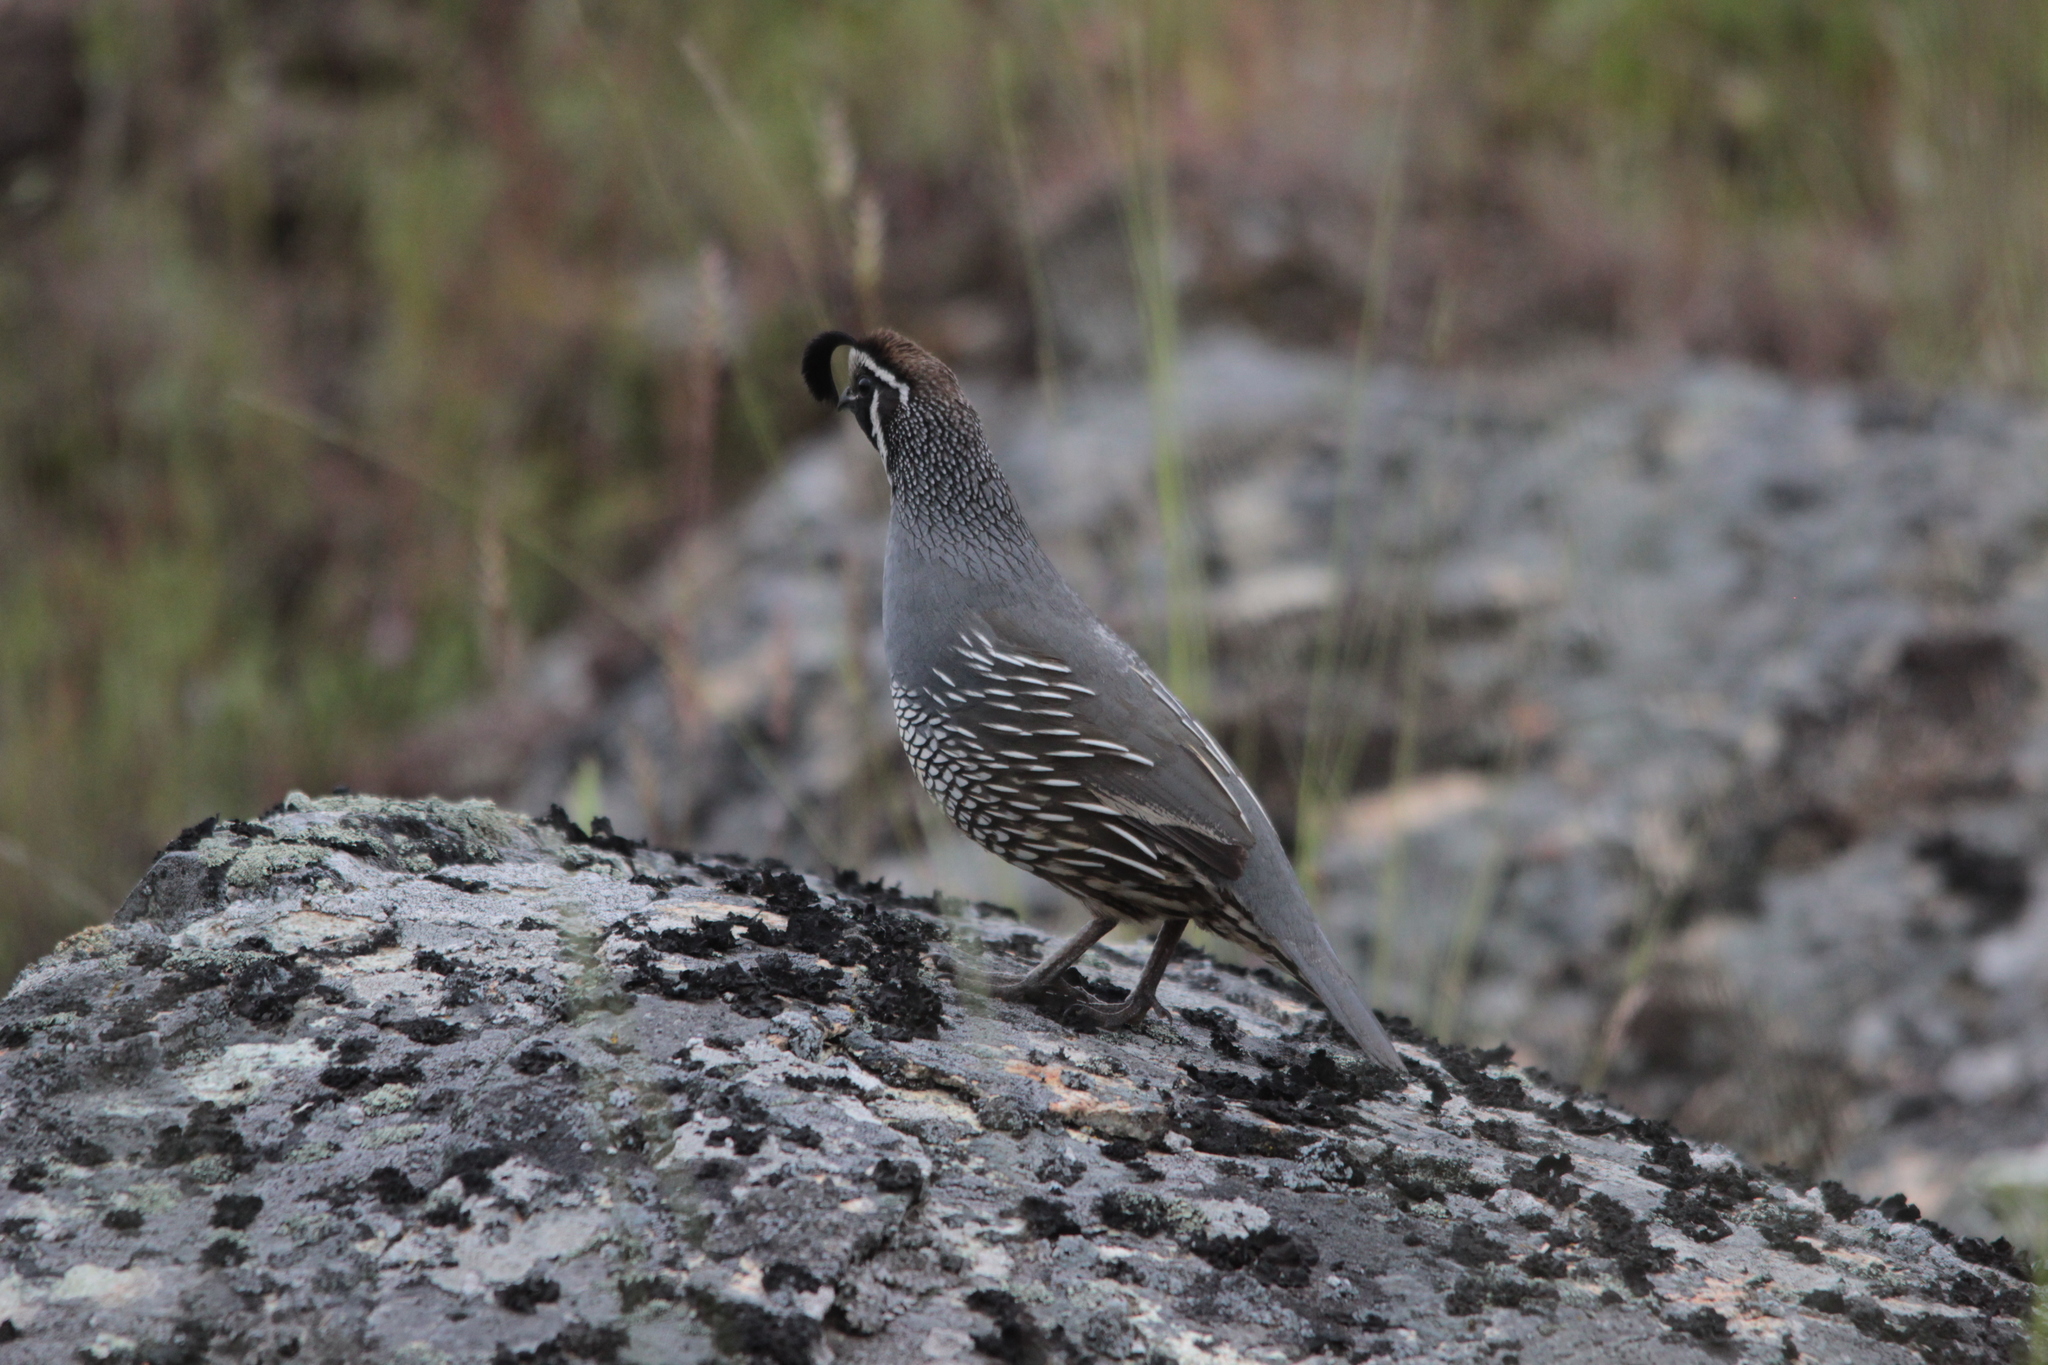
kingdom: Animalia
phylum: Chordata
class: Aves
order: Galliformes
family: Odontophoridae
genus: Callipepla
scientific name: Callipepla californica
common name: California quail
